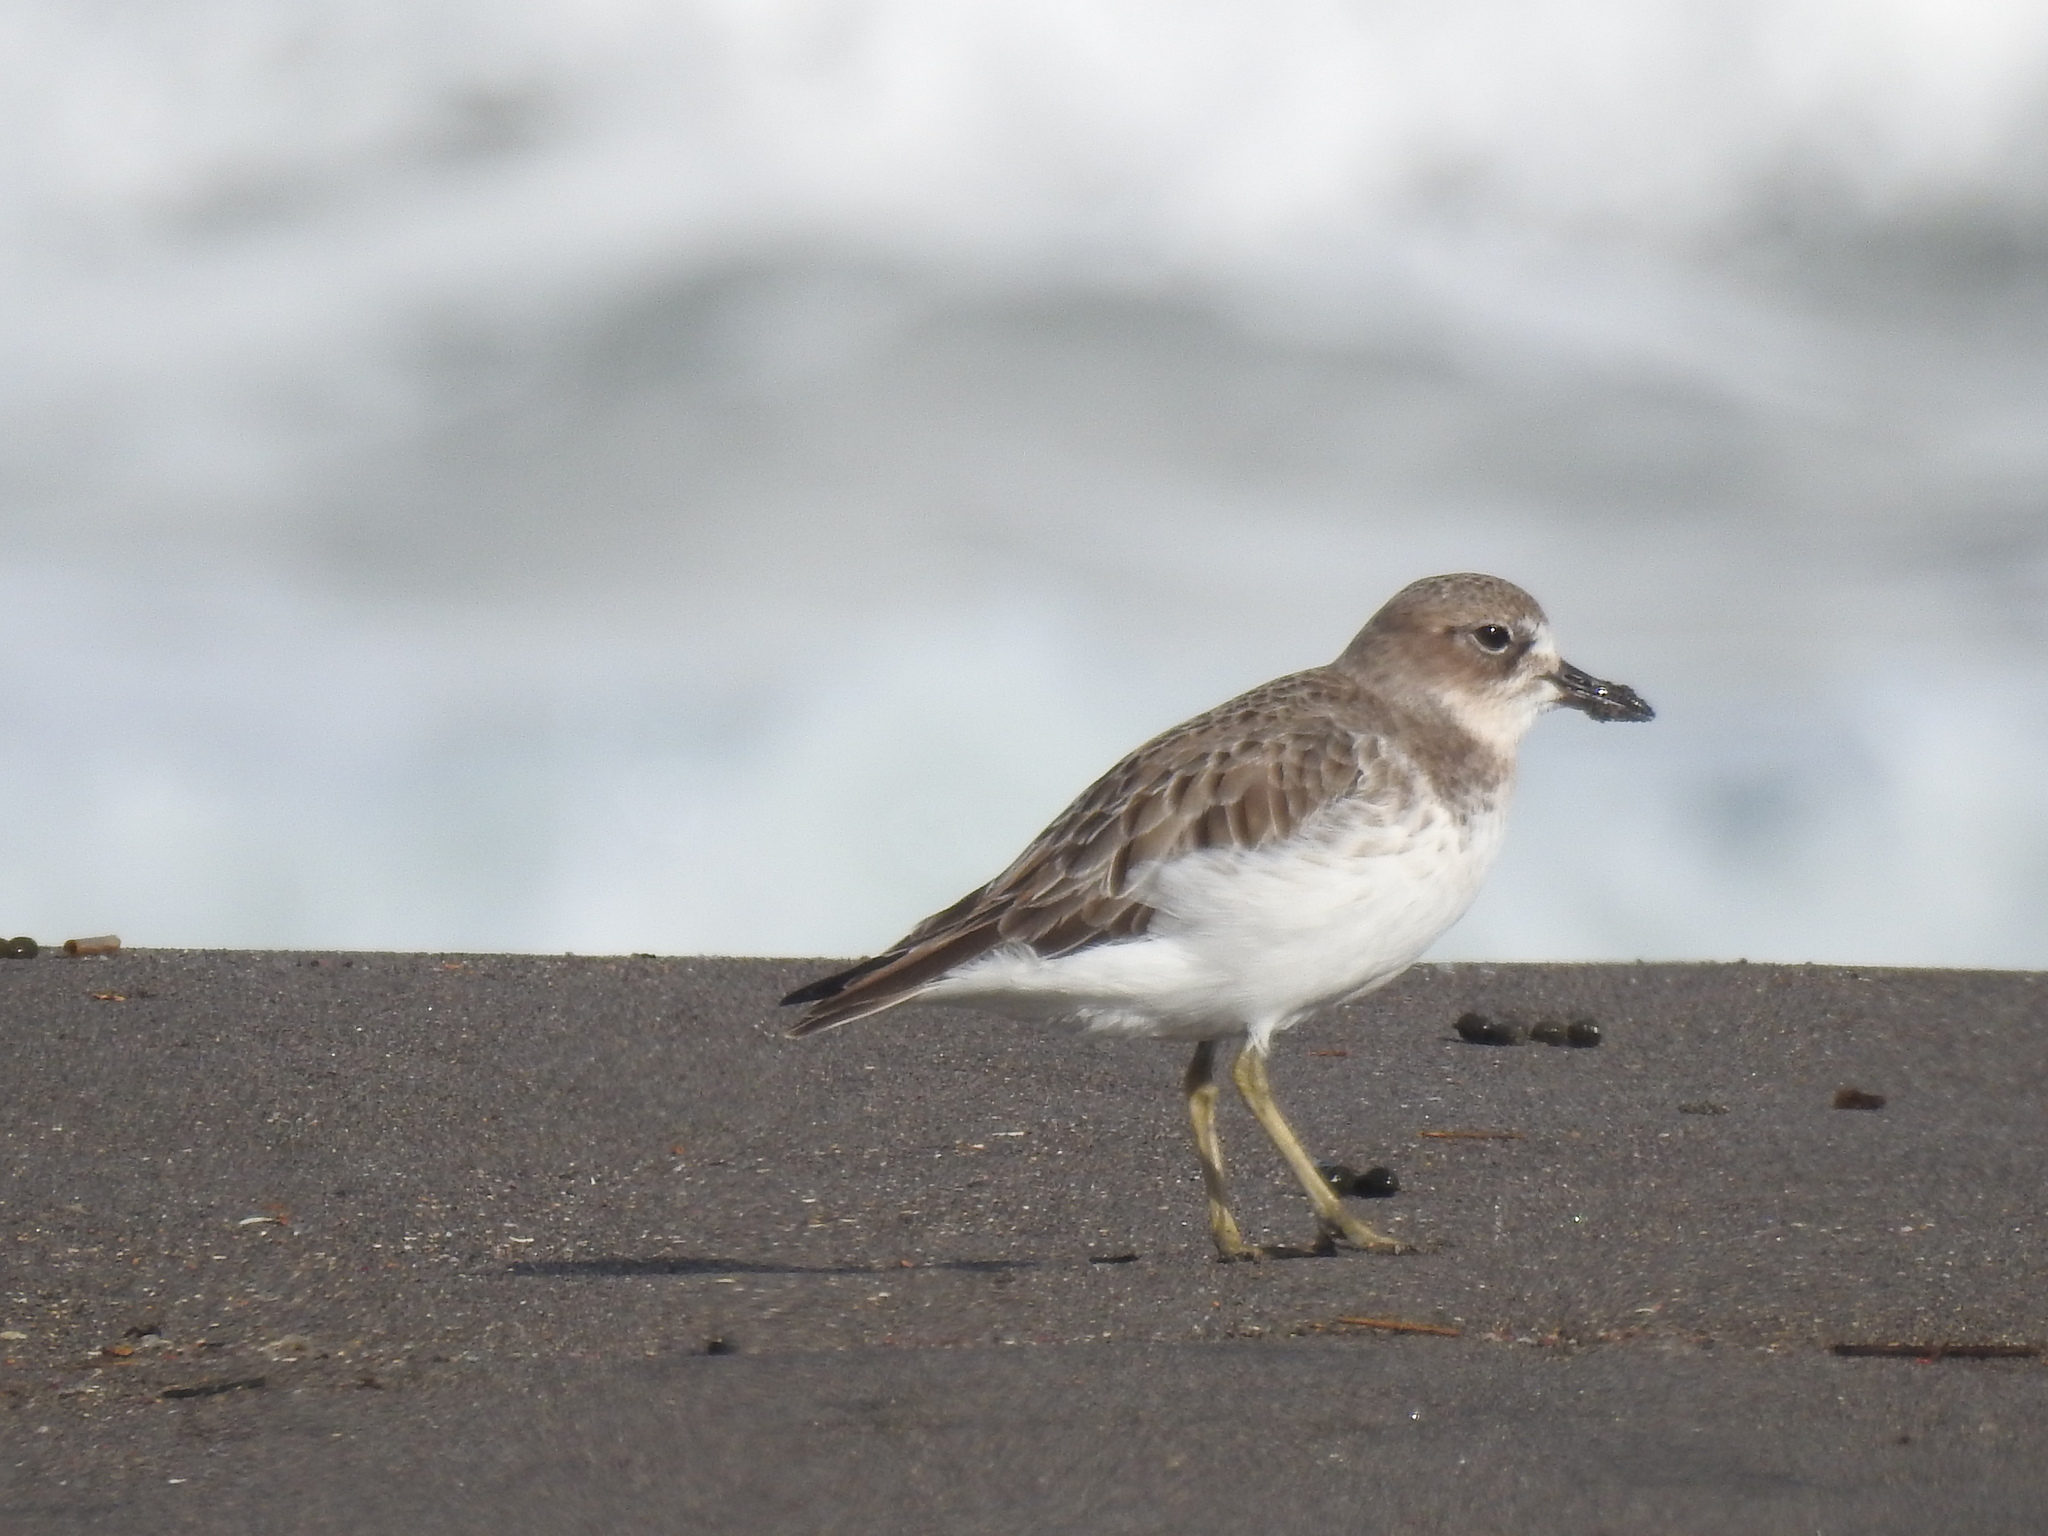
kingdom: Animalia
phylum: Chordata
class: Aves
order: Charadriiformes
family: Charadriidae
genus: Anarhynchus
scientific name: Anarhynchus
